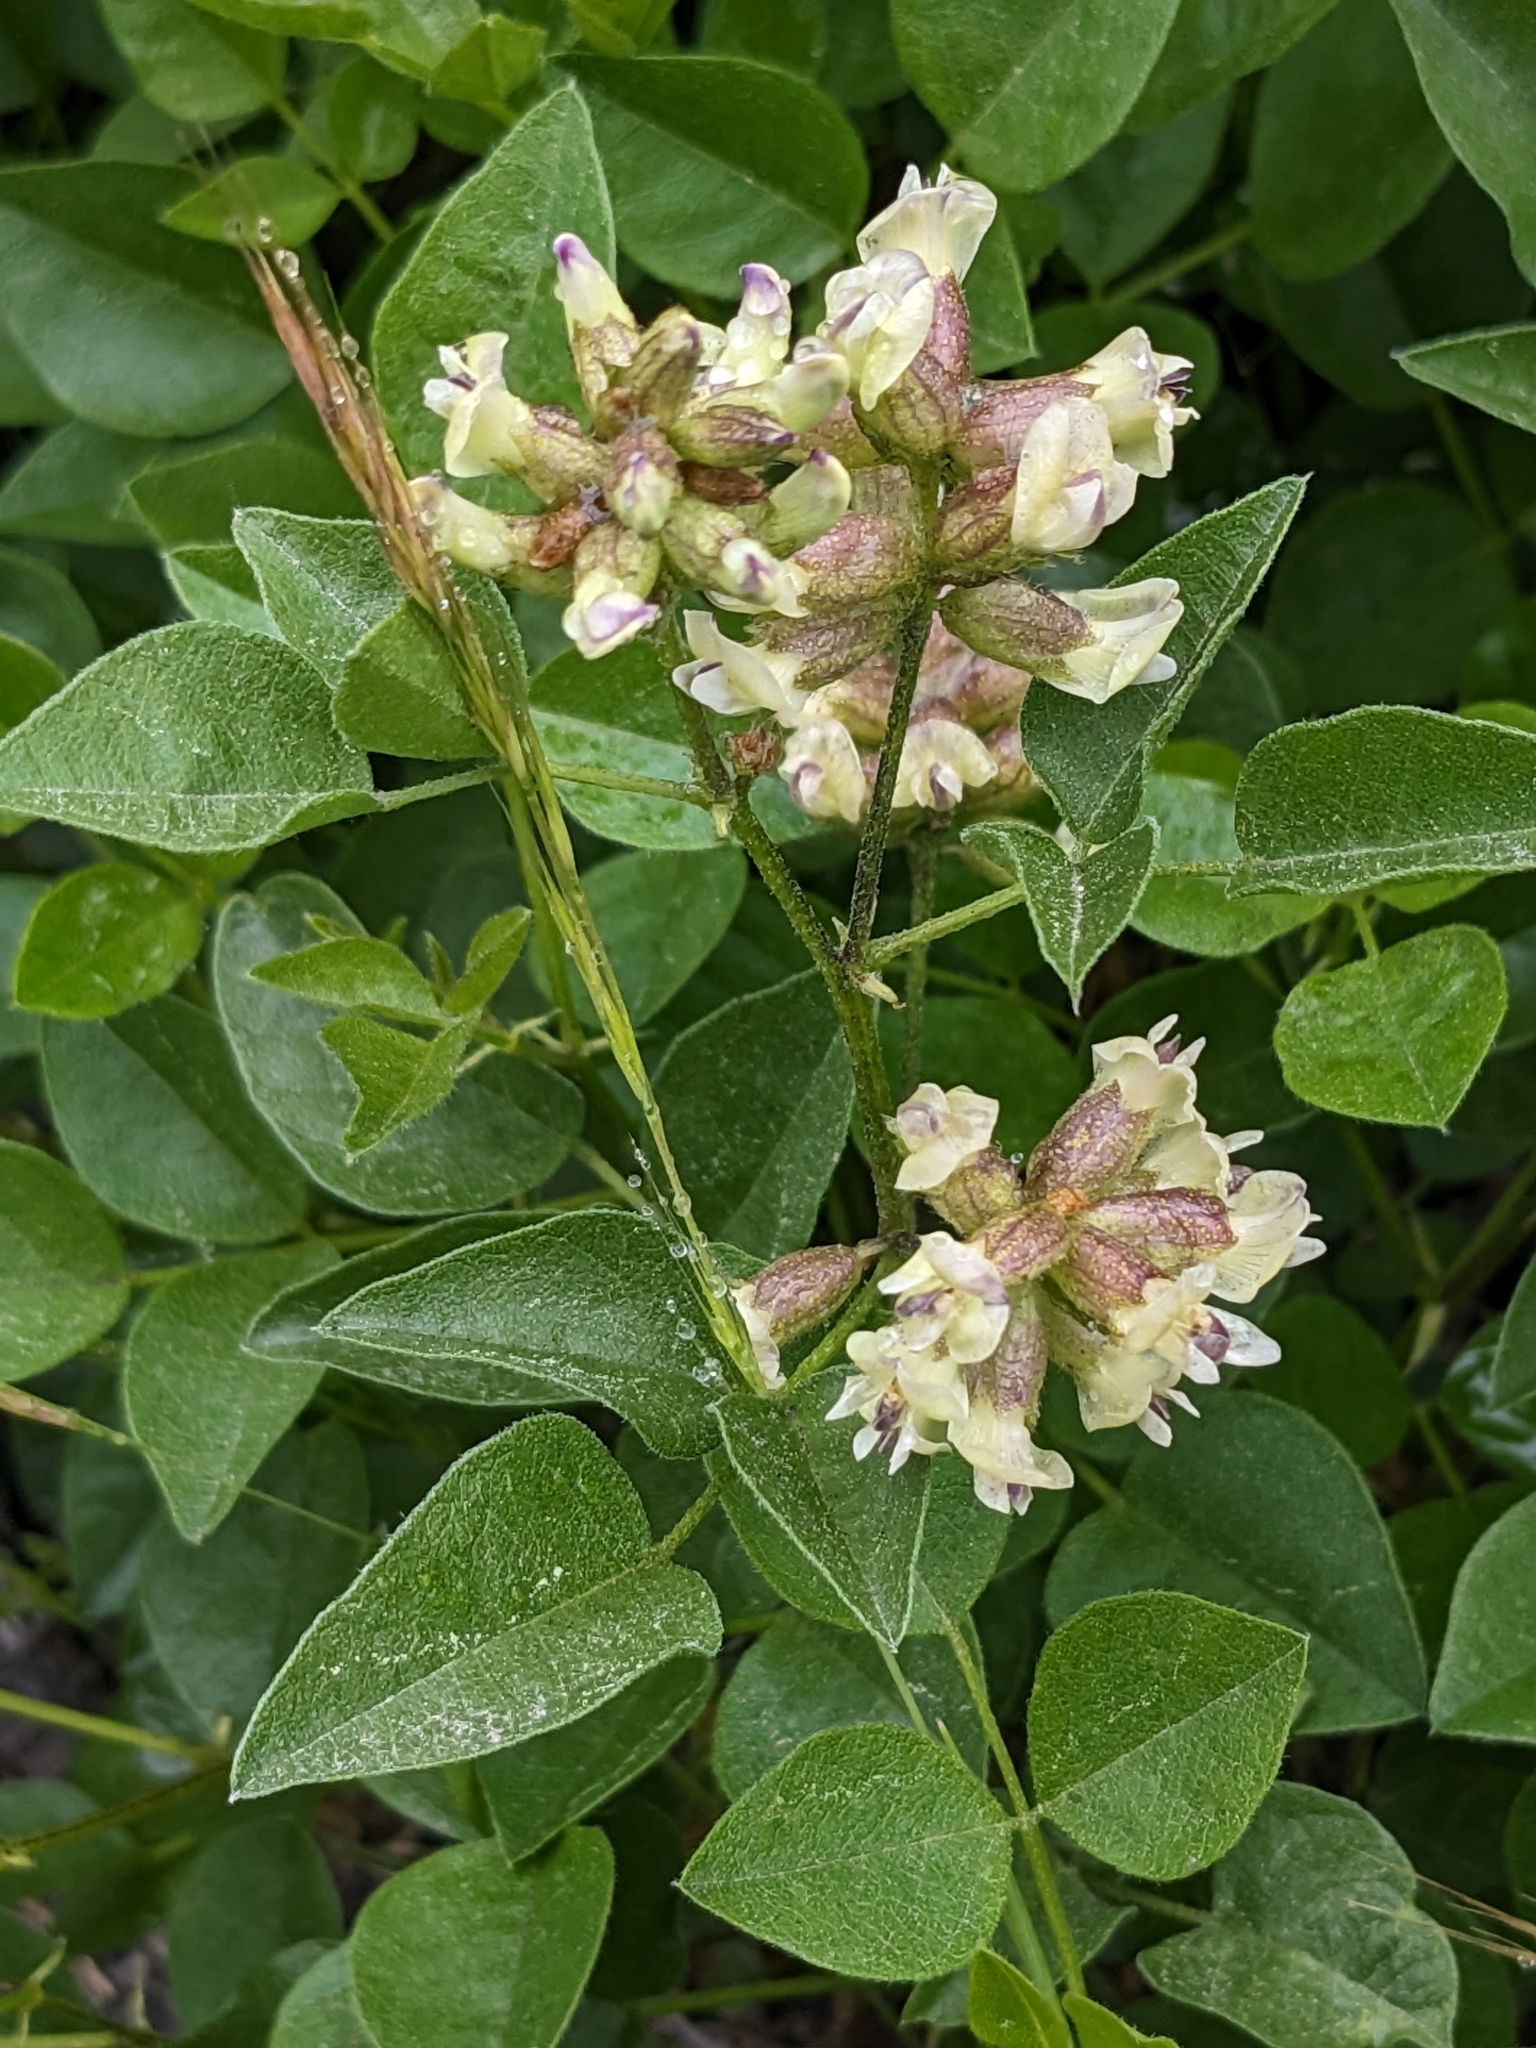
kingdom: Plantae
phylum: Tracheophyta
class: Magnoliopsida
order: Fabales
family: Fabaceae
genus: Rupertia
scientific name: Rupertia physodes
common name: California-tea
